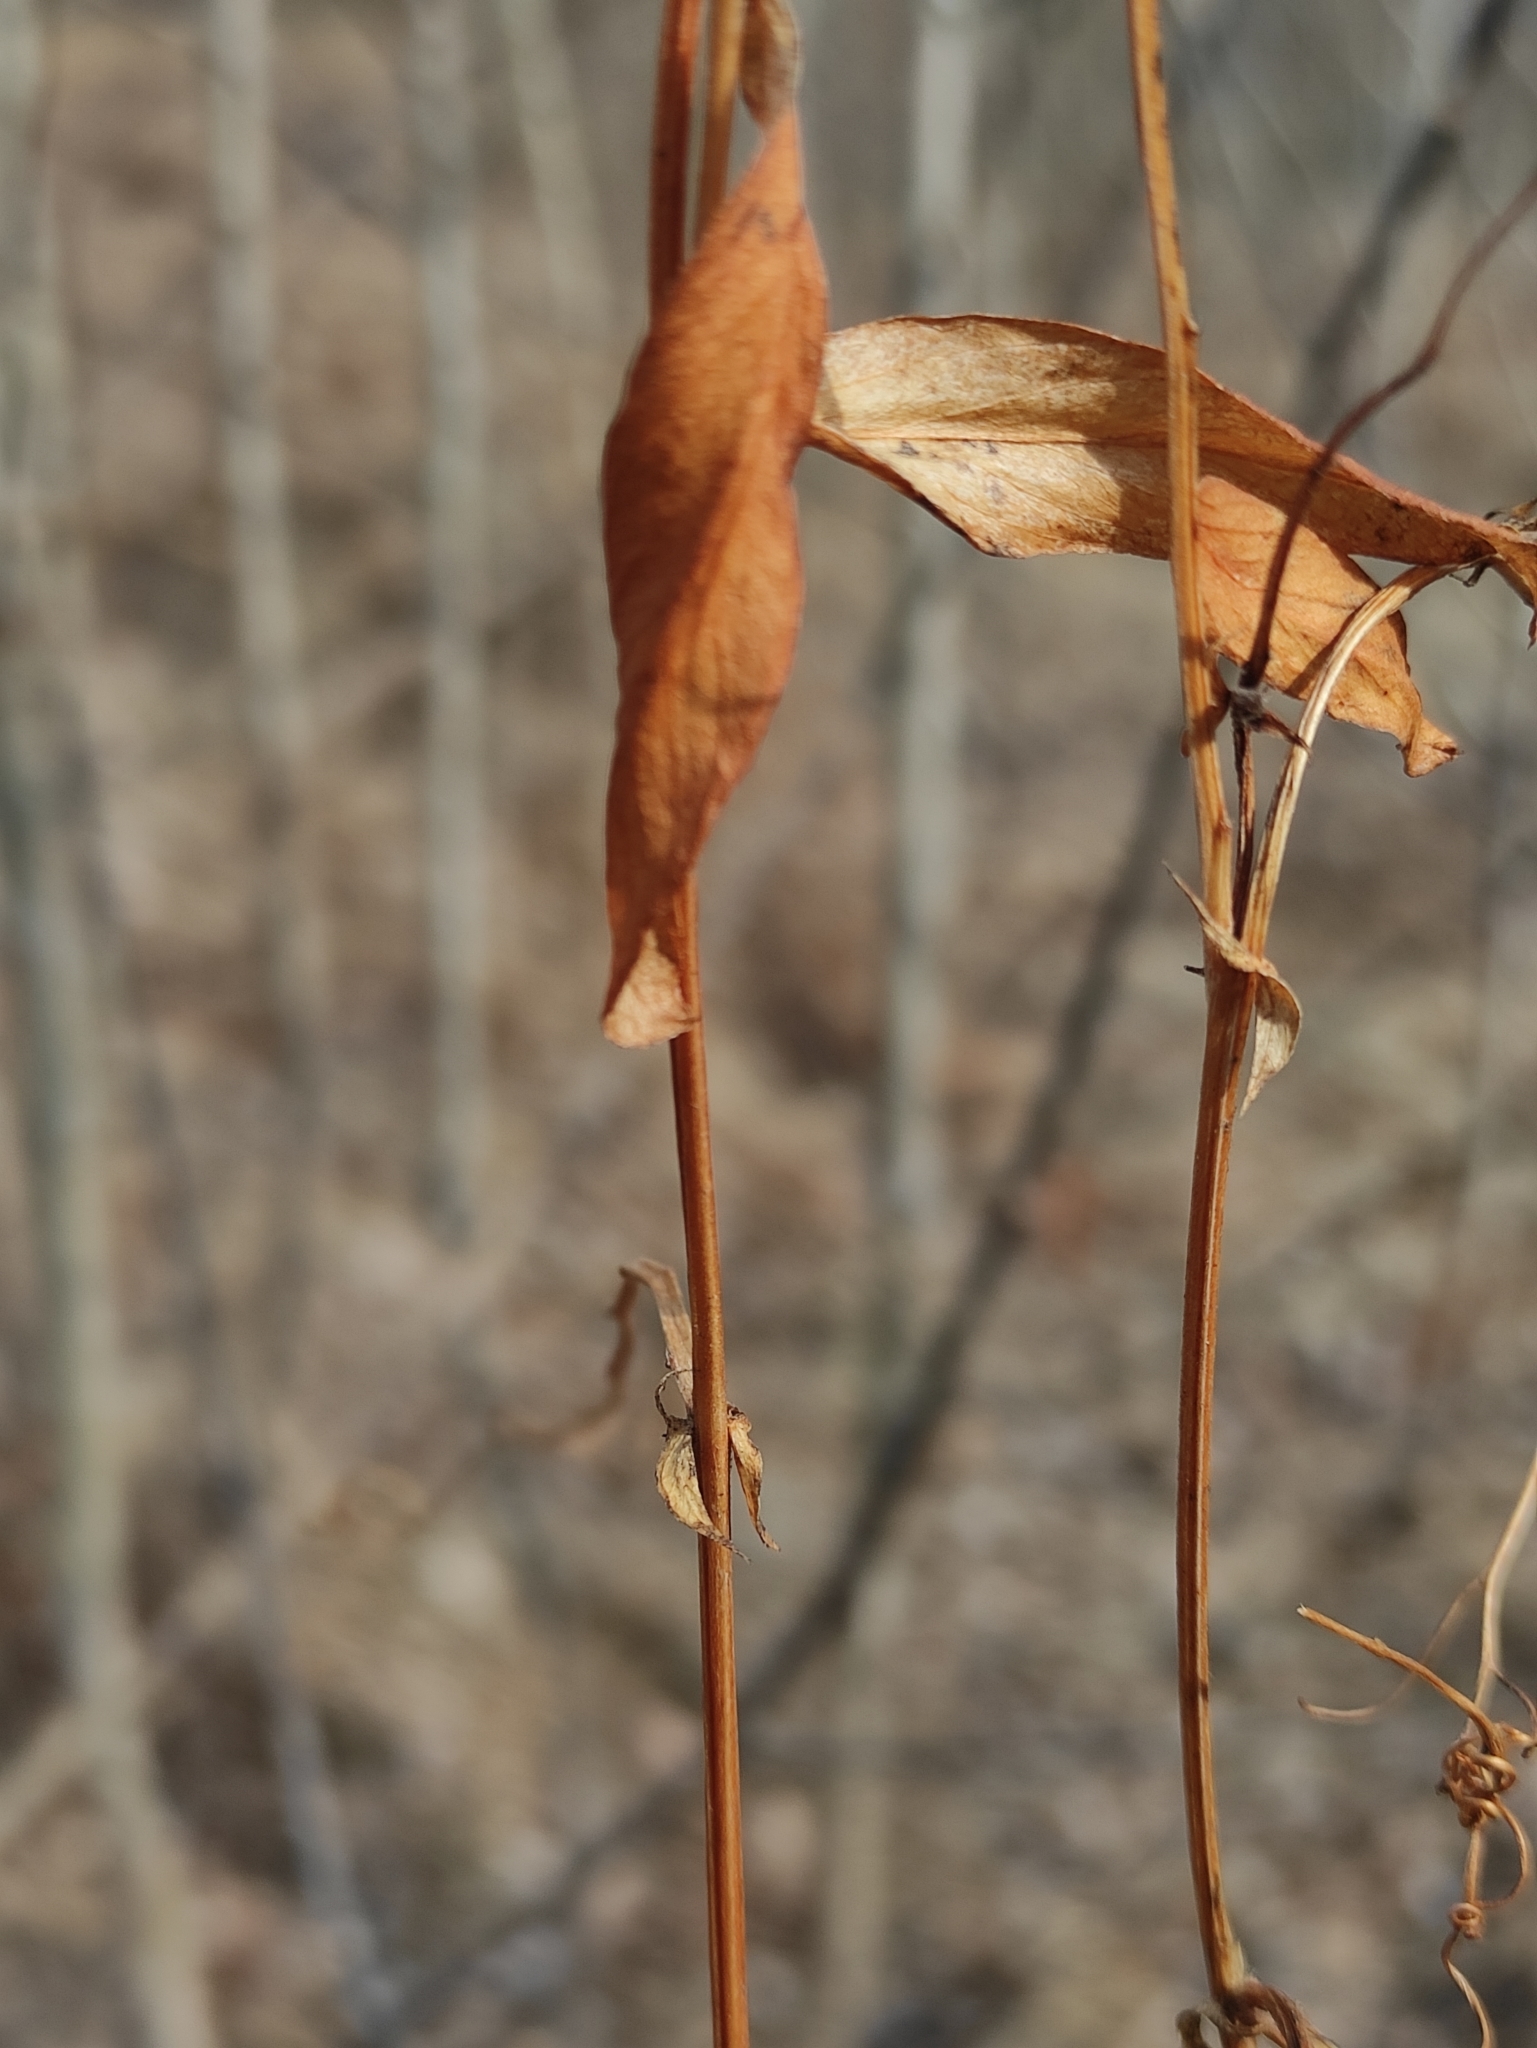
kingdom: Plantae
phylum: Tracheophyta
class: Magnoliopsida
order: Fabales
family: Fabaceae
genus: Vicia
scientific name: Vicia amoena
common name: Cheder ebs
